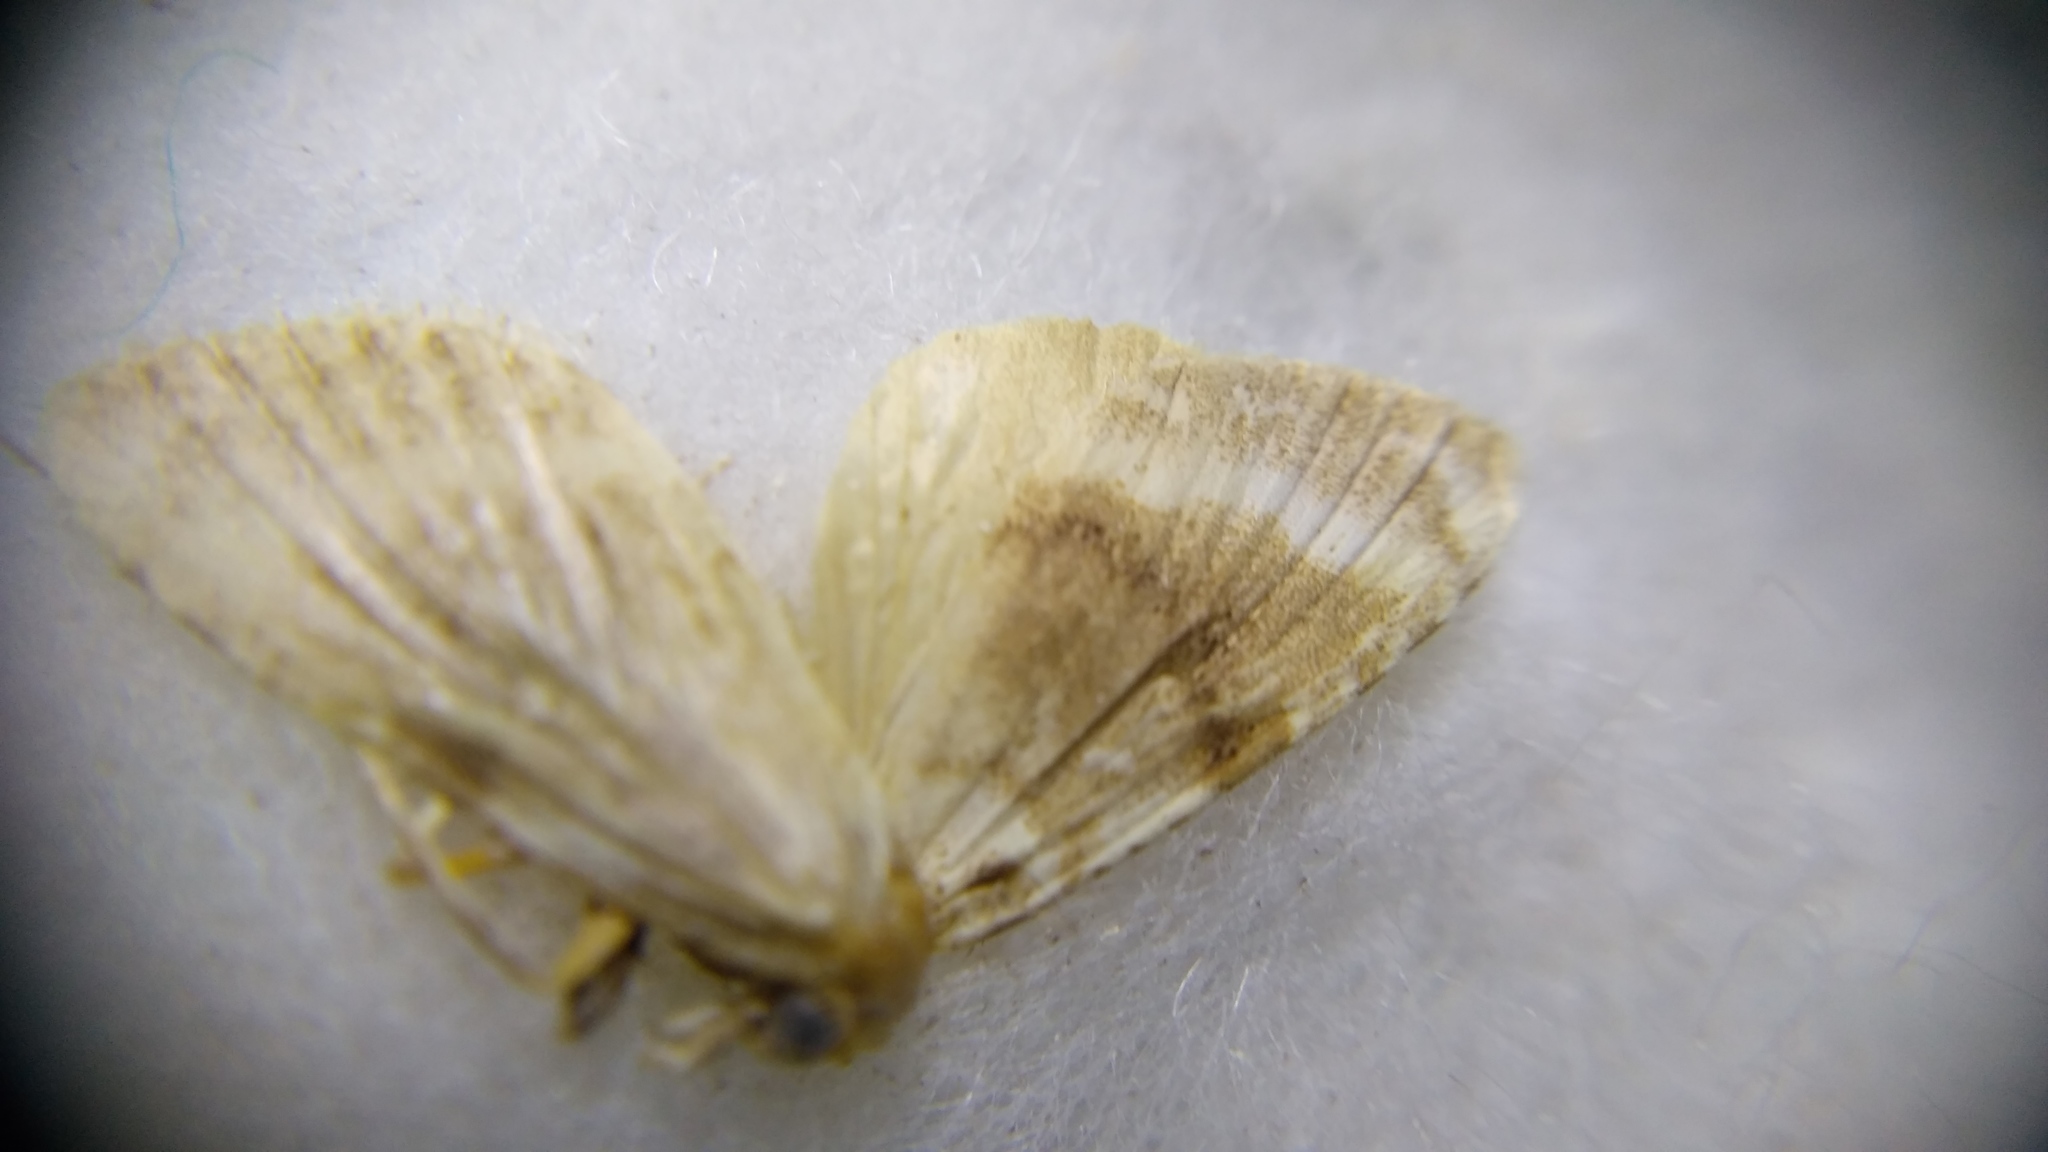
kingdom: Animalia
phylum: Arthropoda
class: Insecta
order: Lepidoptera
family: Nolidae
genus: Nola
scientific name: Nola aerugula
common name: Scarce black arches
